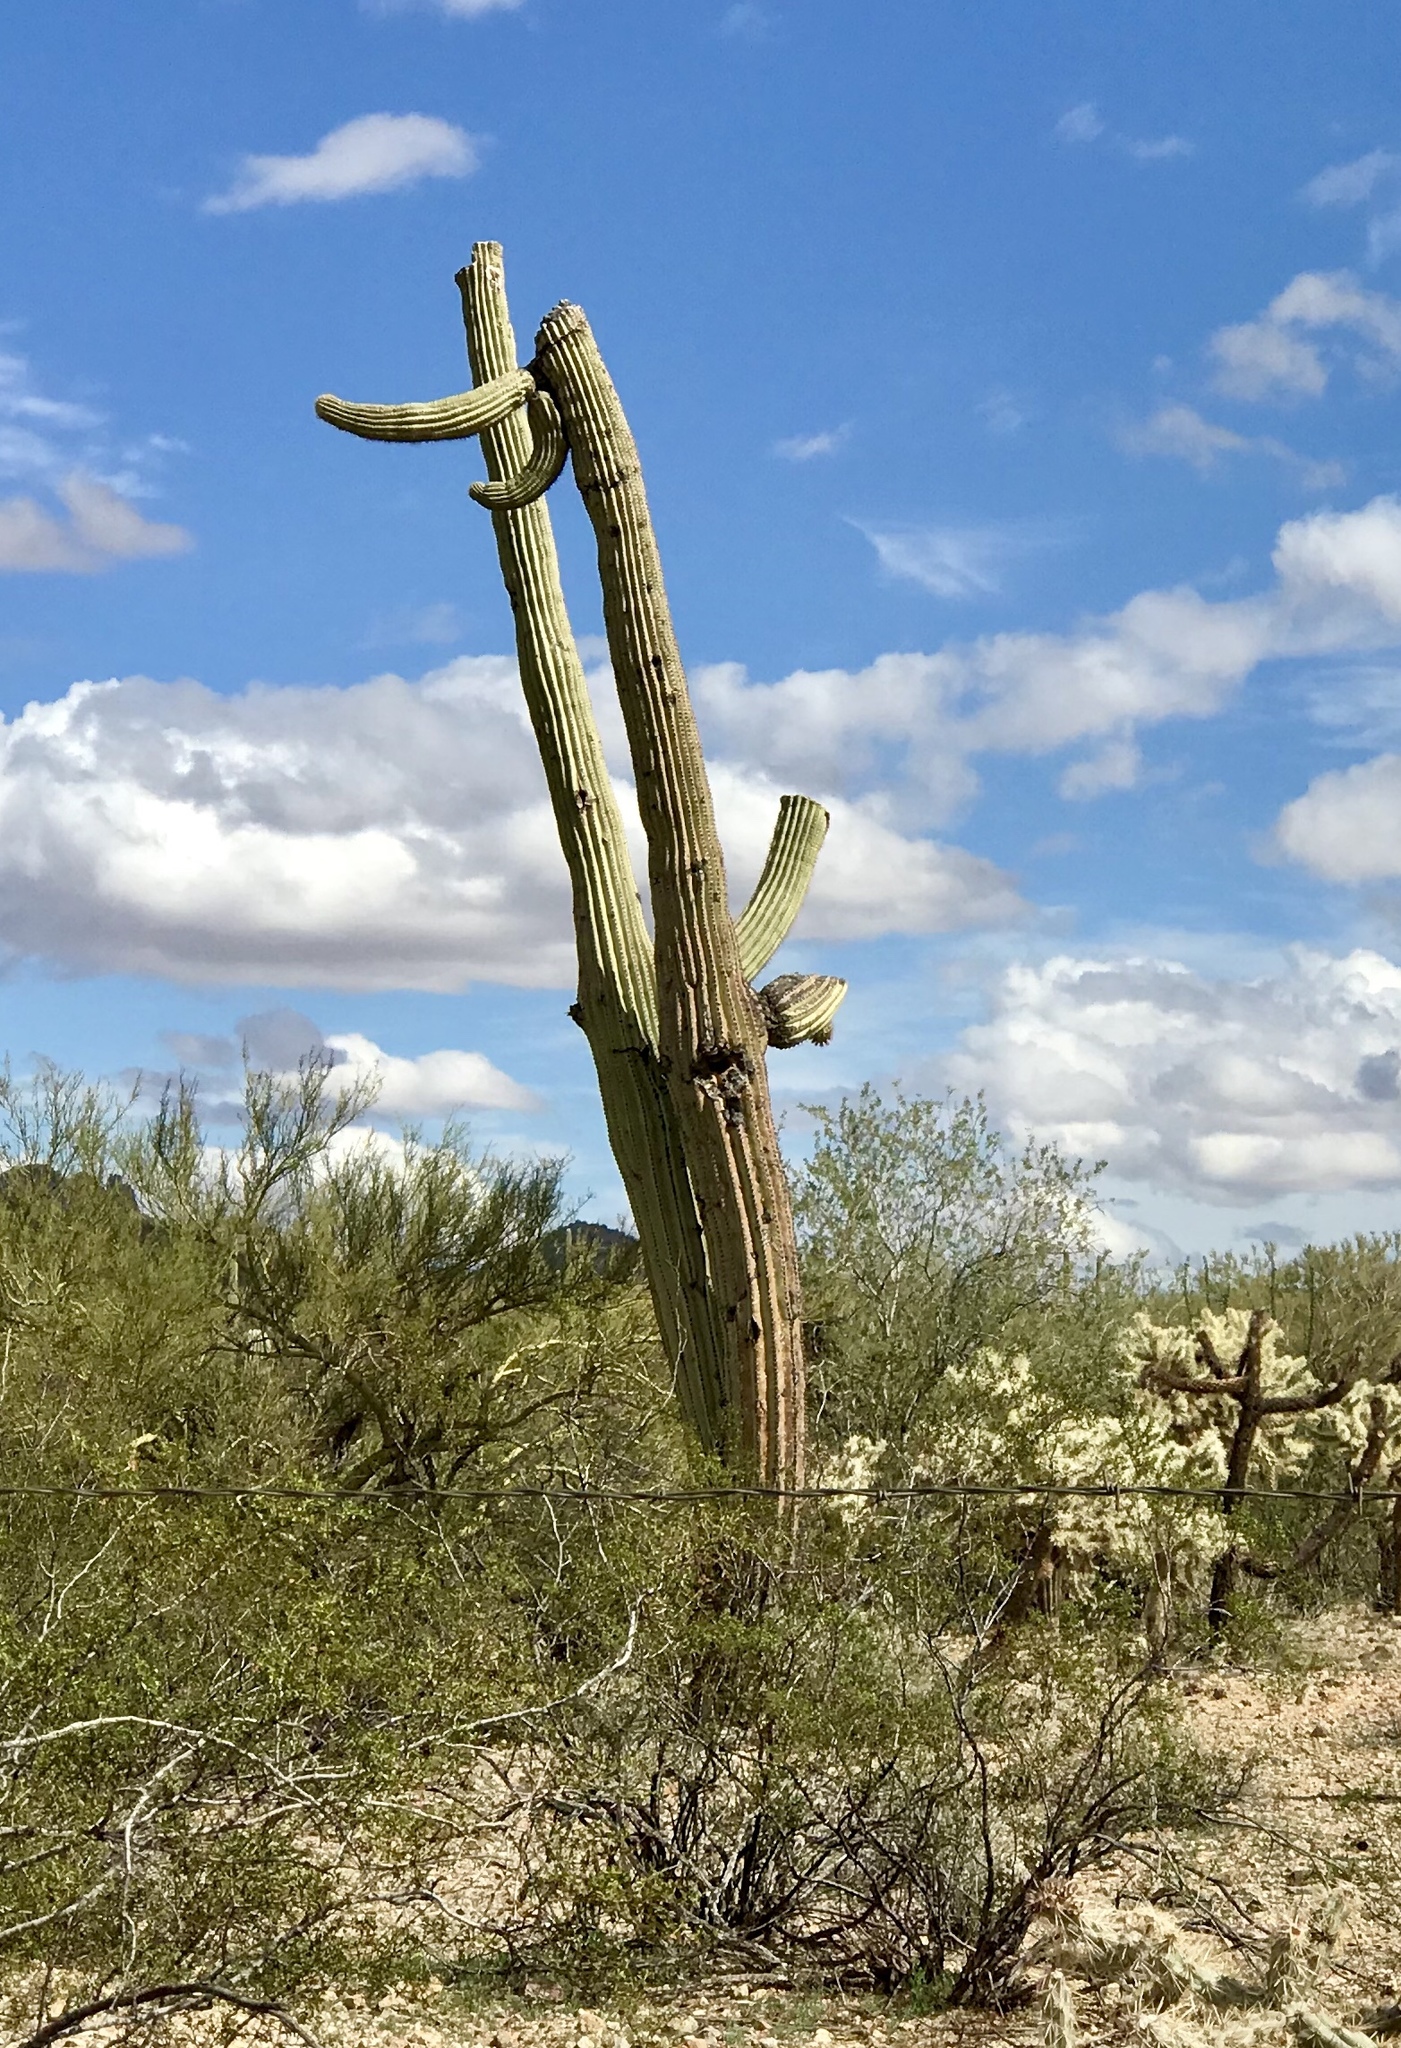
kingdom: Plantae
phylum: Tracheophyta
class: Magnoliopsida
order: Caryophyllales
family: Cactaceae
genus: Carnegiea
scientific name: Carnegiea gigantea
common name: Saguaro
